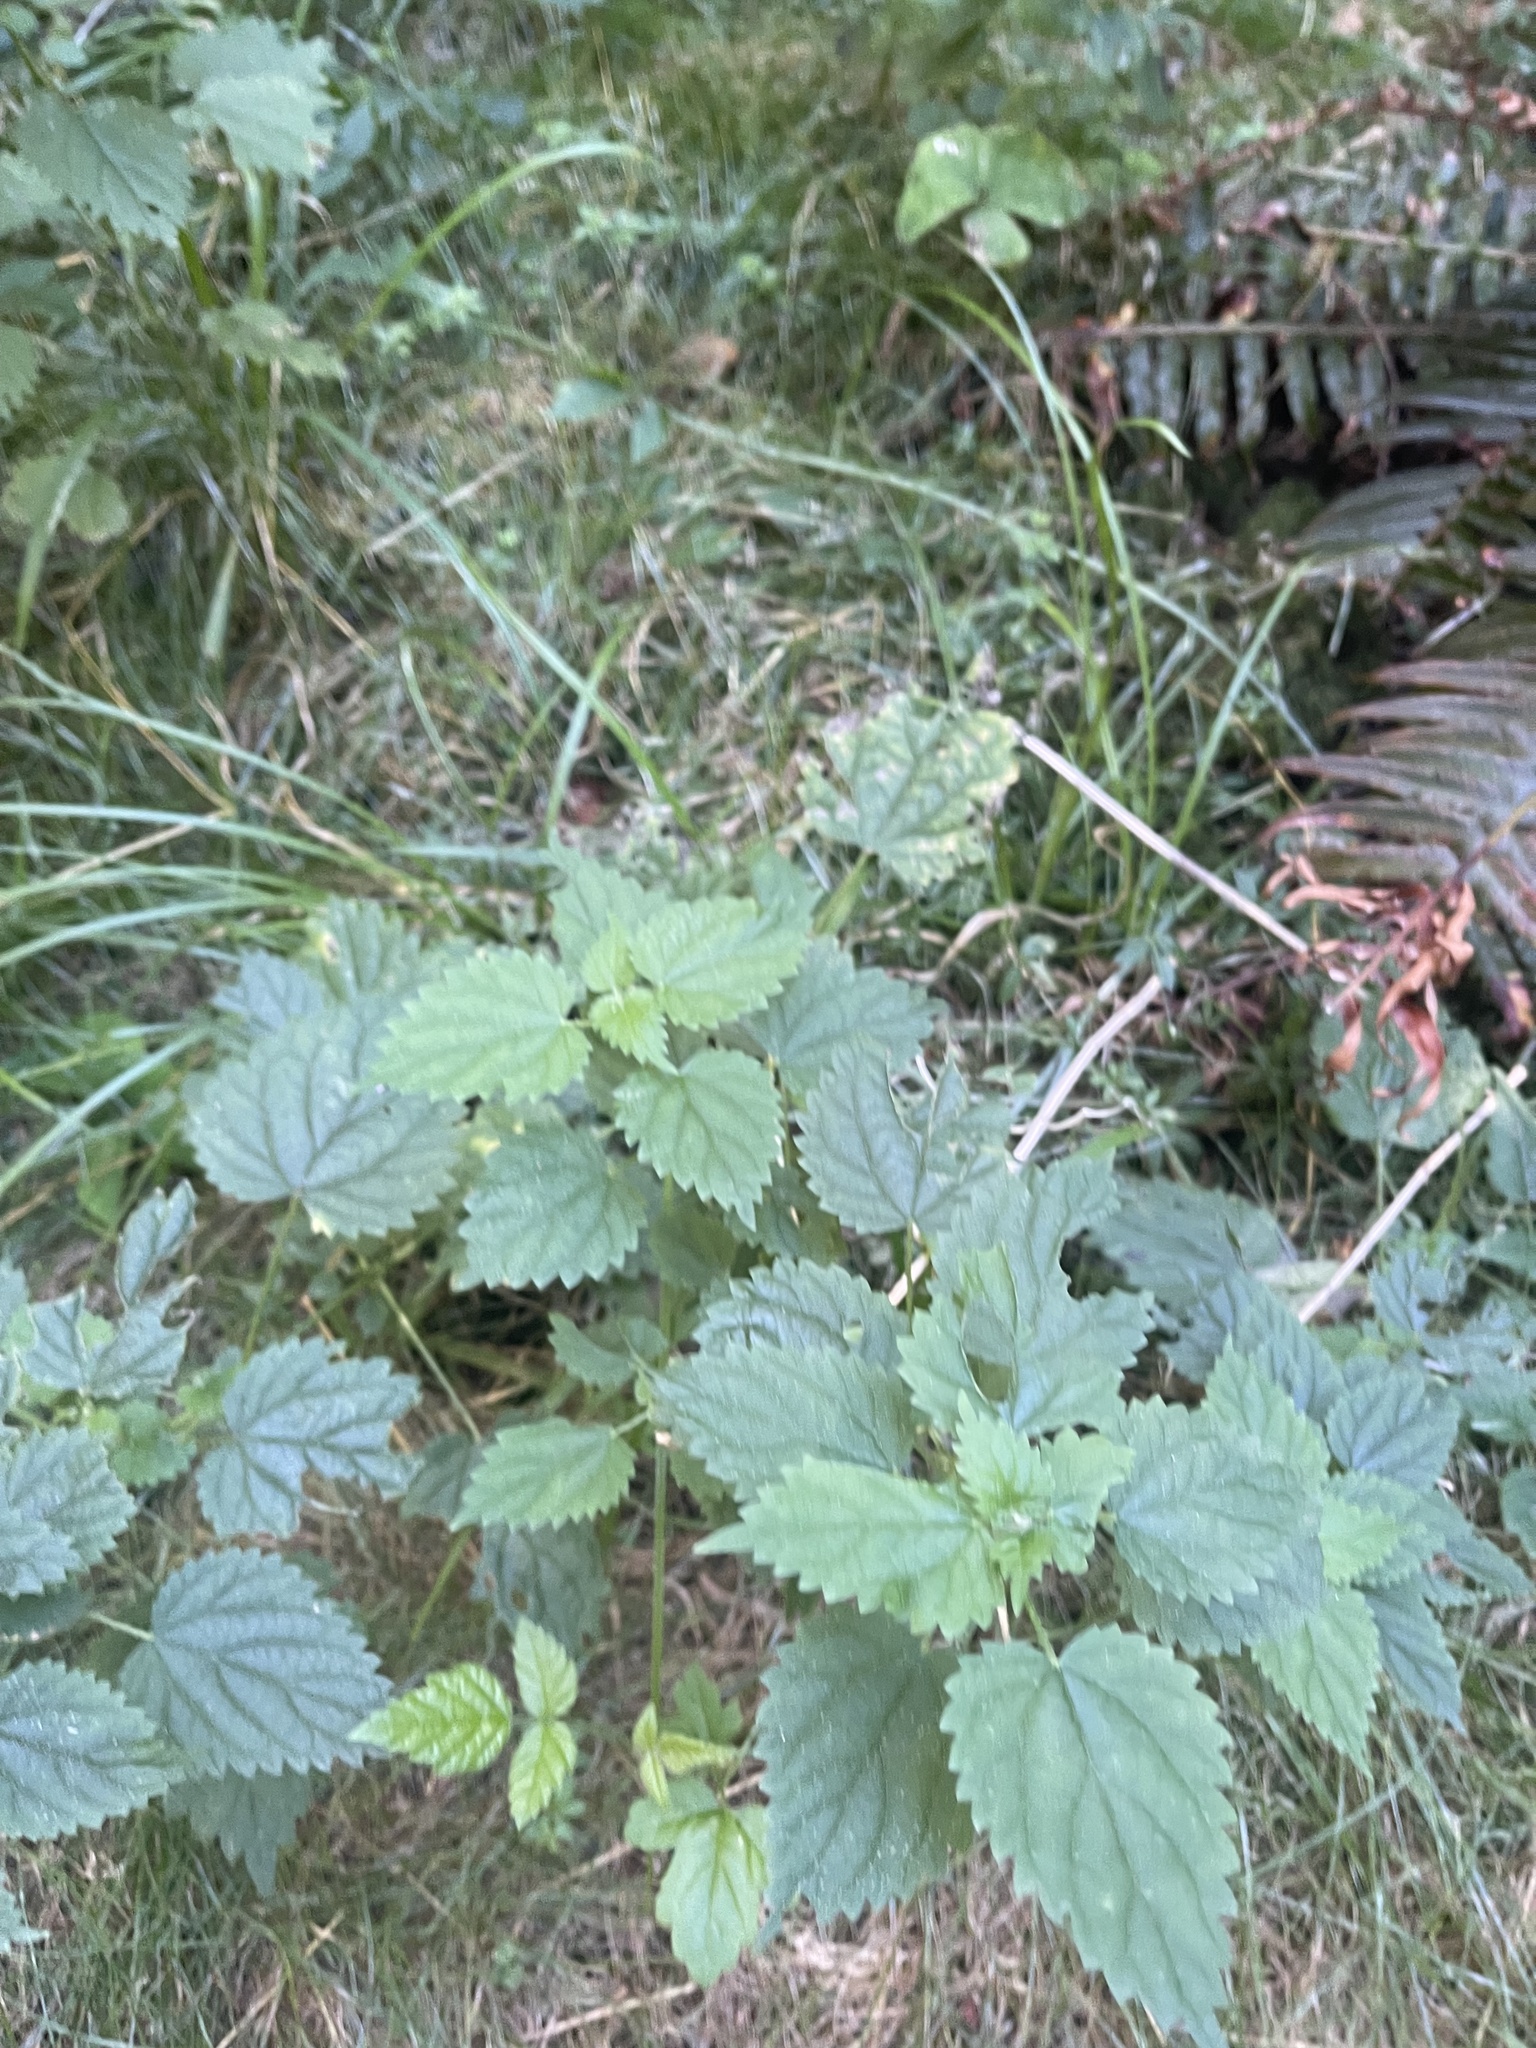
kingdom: Plantae
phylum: Tracheophyta
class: Magnoliopsida
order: Rosales
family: Urticaceae
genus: Urtica
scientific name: Urtica dioica
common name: Common nettle
